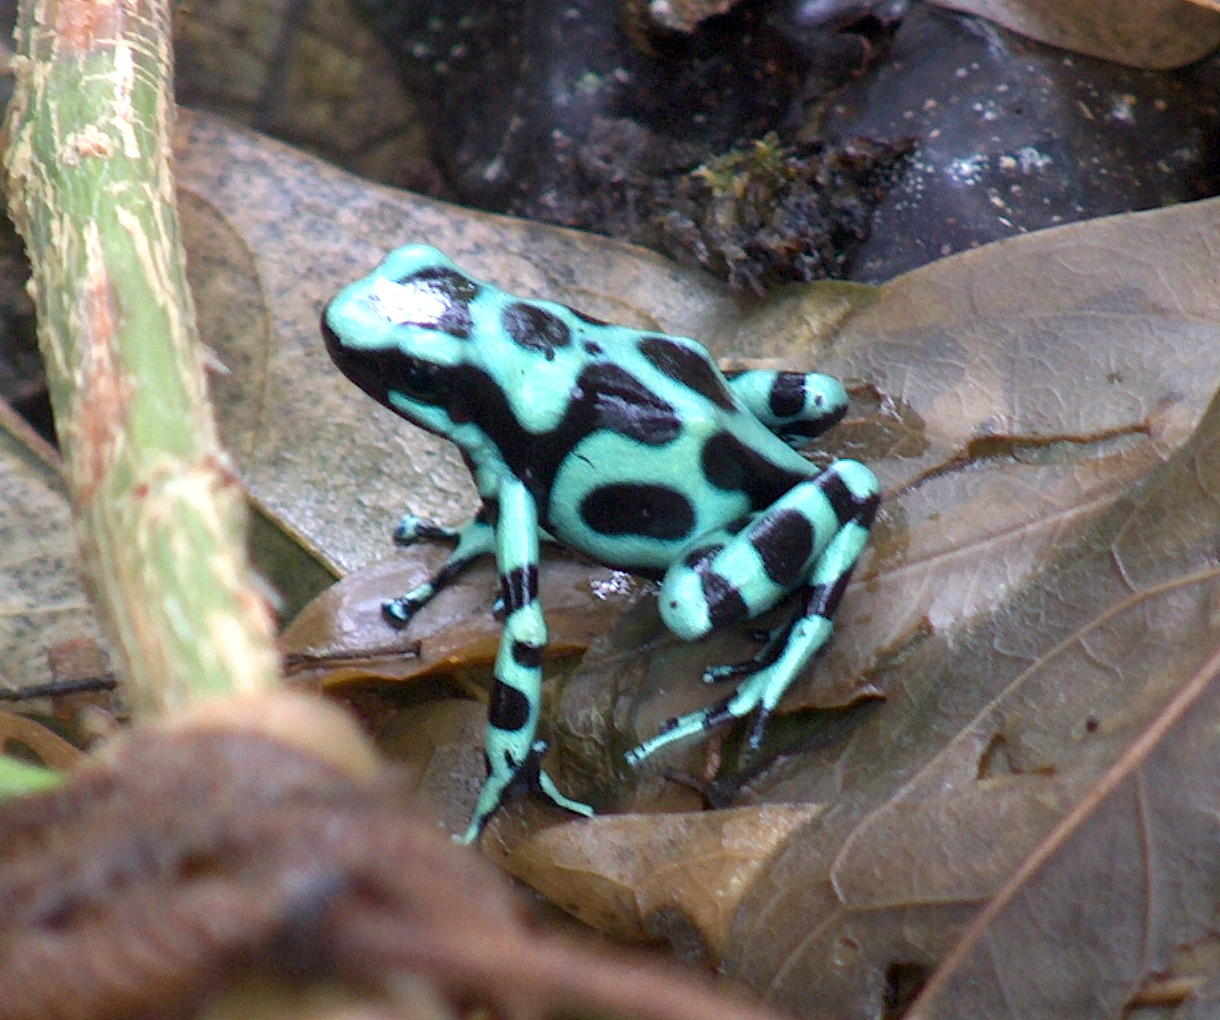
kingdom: Animalia
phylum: Chordata
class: Amphibia
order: Anura
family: Dendrobatidae
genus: Dendrobates
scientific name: Dendrobates auratus
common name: Green and black poison dart frog
